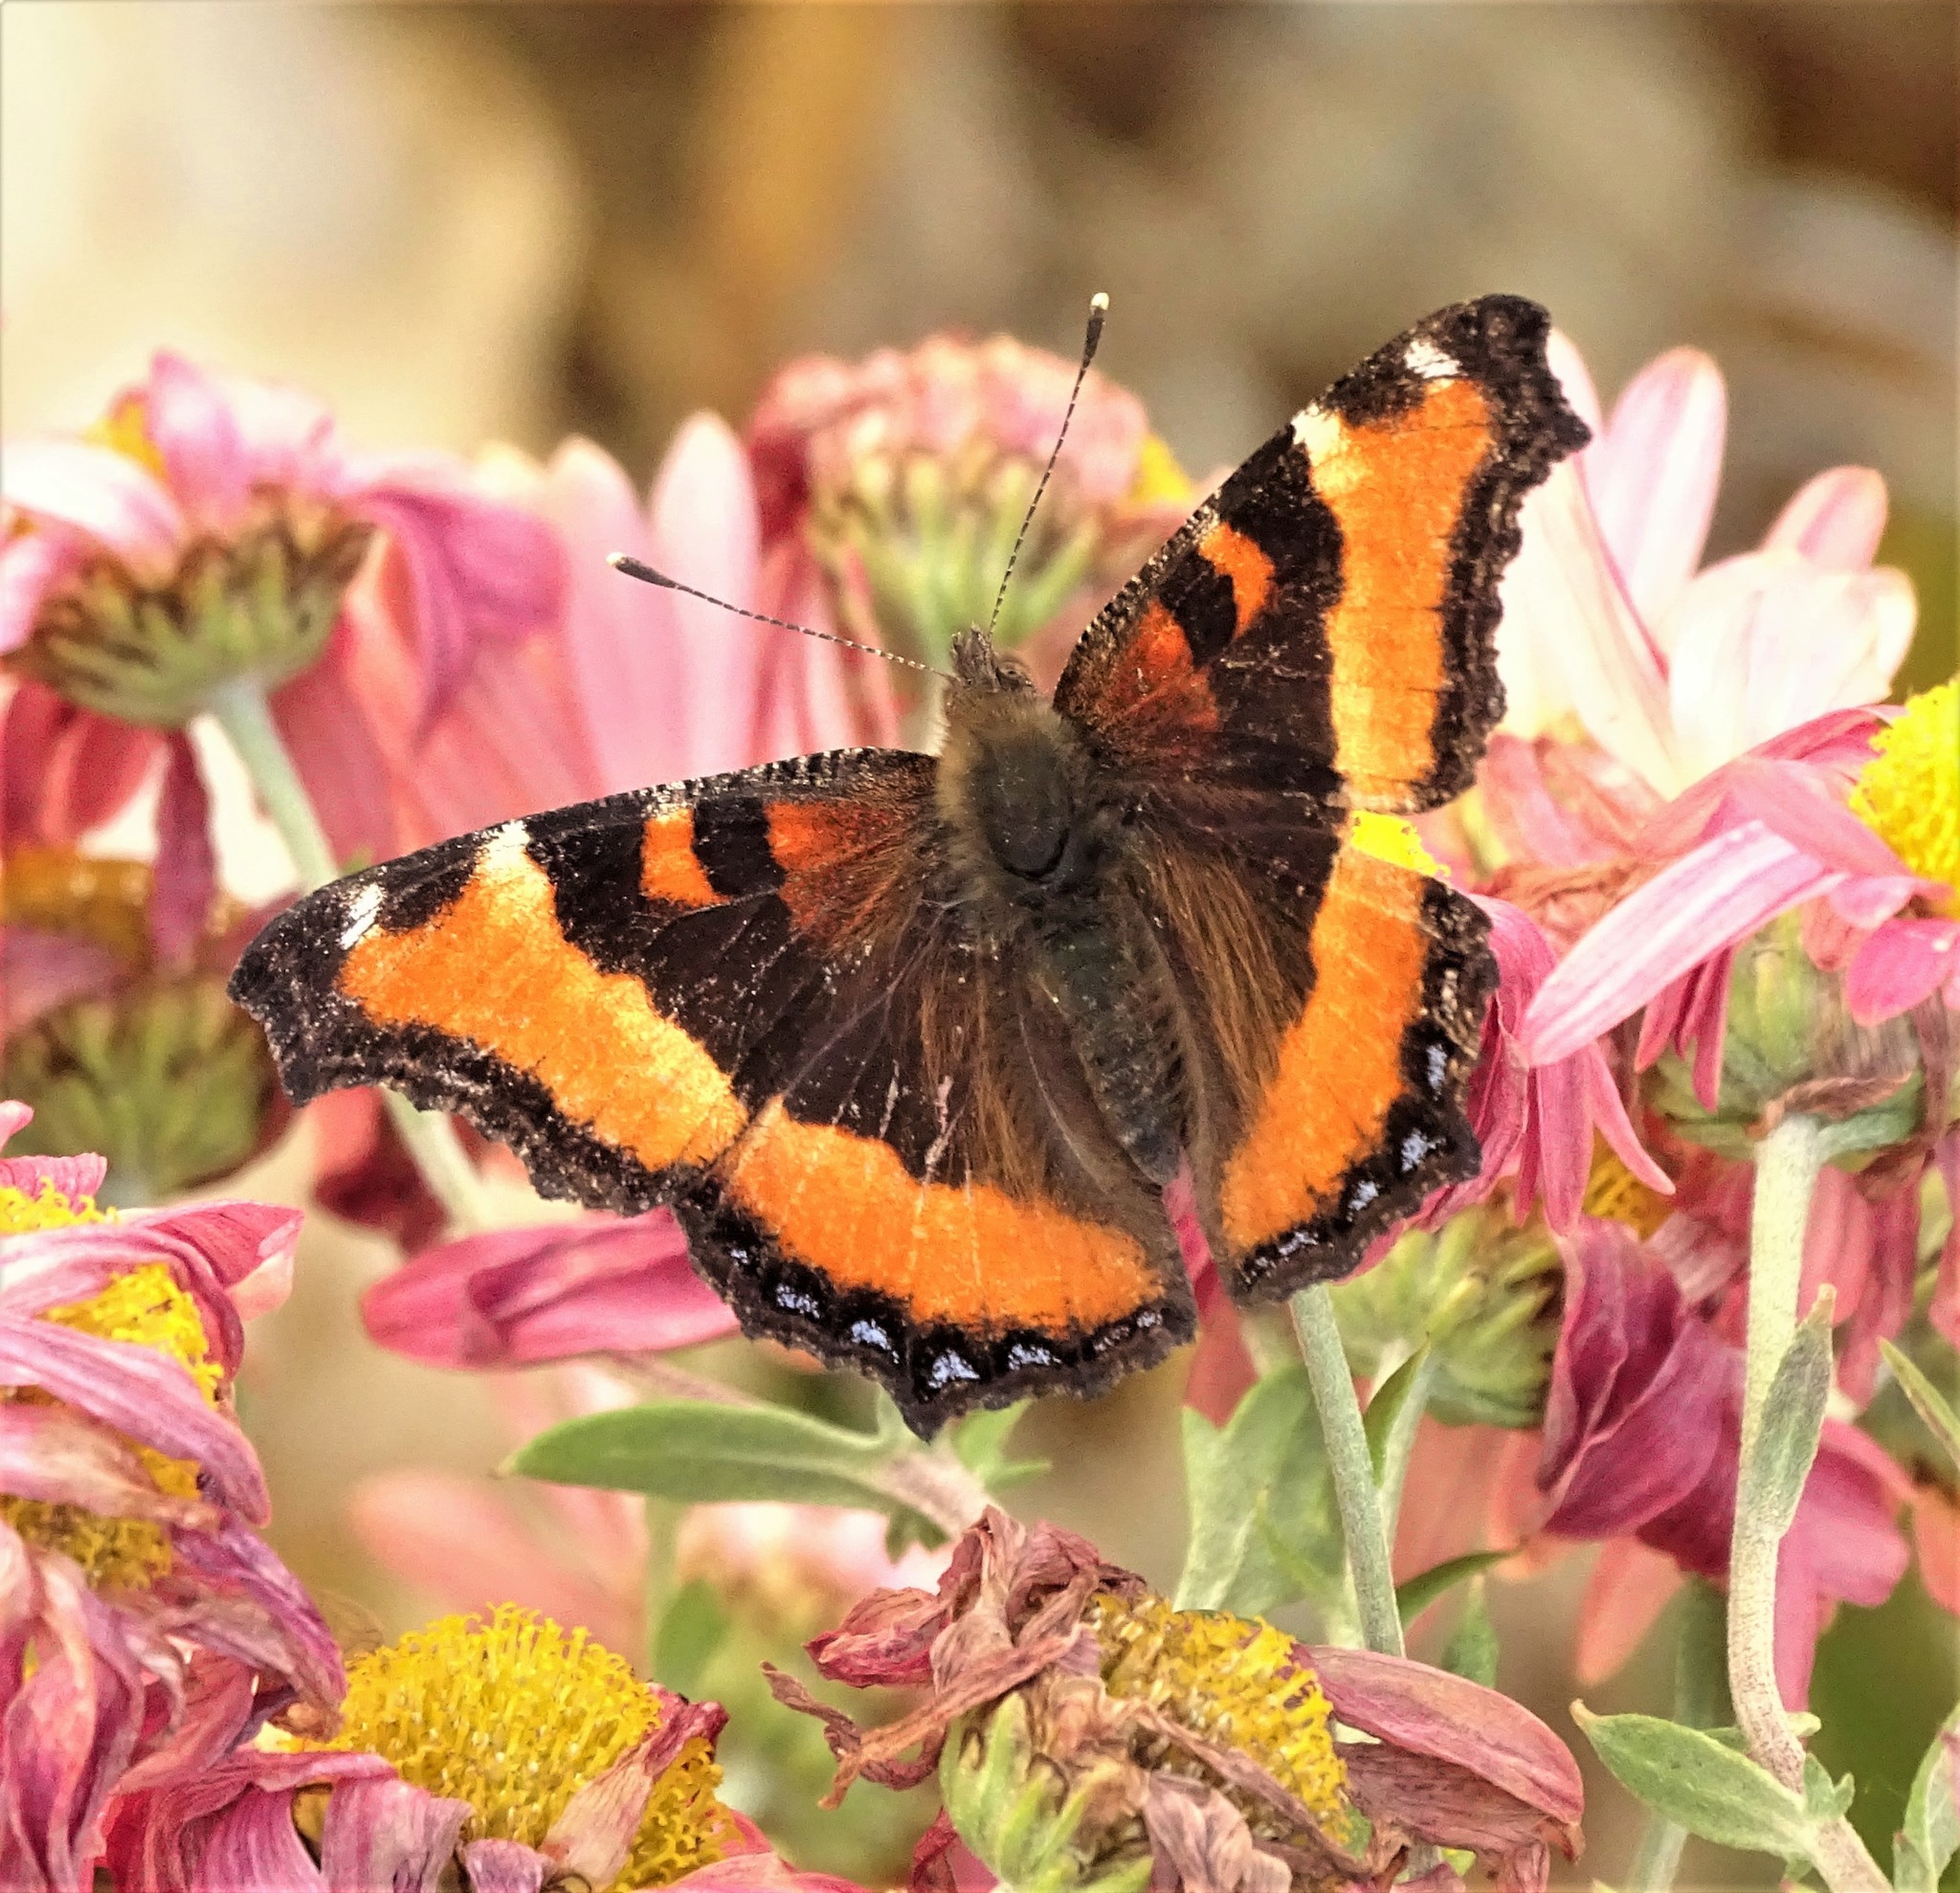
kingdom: Animalia
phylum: Arthropoda
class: Insecta
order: Lepidoptera
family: Nymphalidae
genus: Aglais
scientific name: Aglais milberti
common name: Milbert's tortoiseshell
